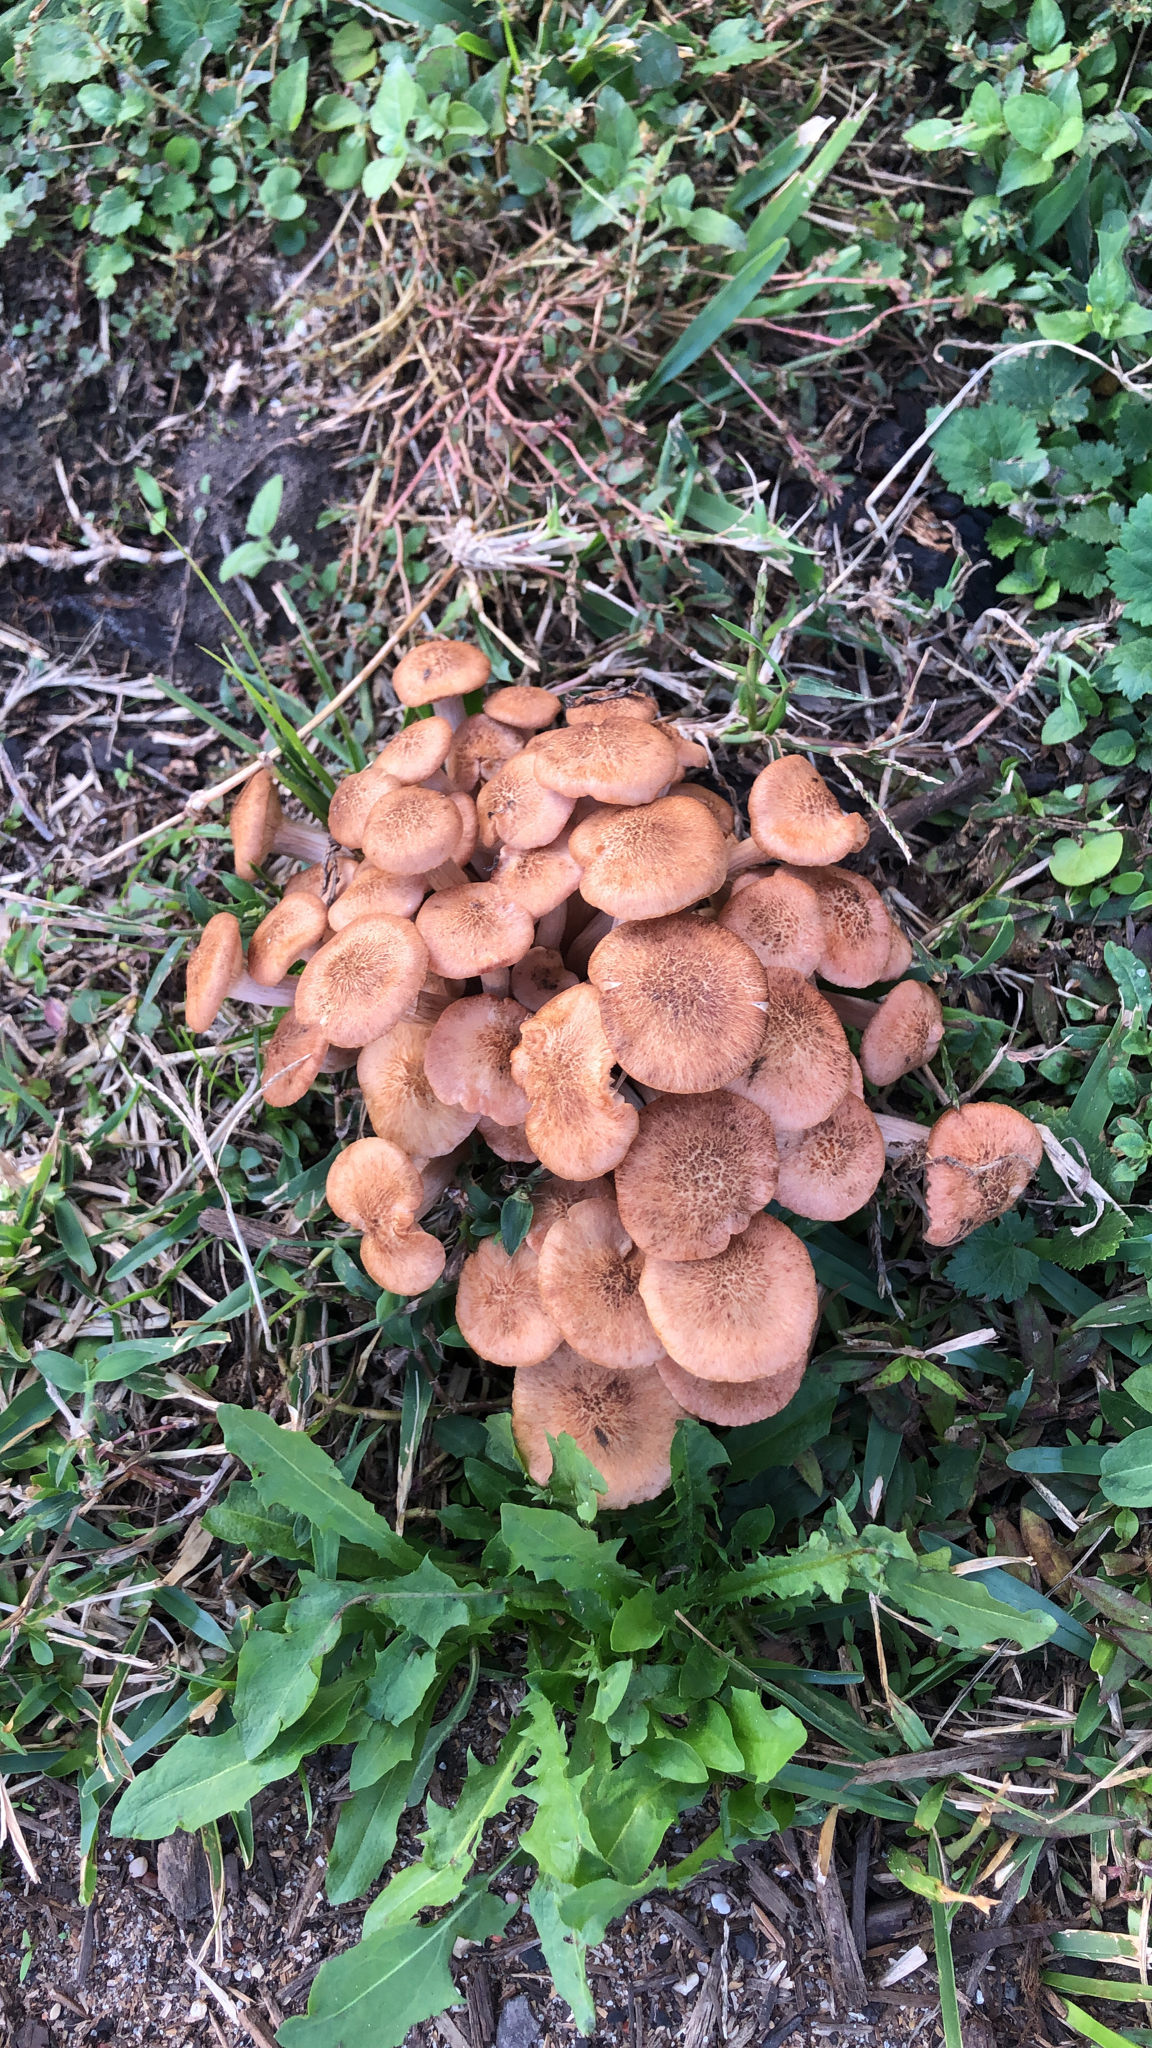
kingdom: Fungi
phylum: Basidiomycota
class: Agaricomycetes
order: Agaricales
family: Physalacriaceae
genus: Desarmillaria
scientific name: Desarmillaria caespitosa
